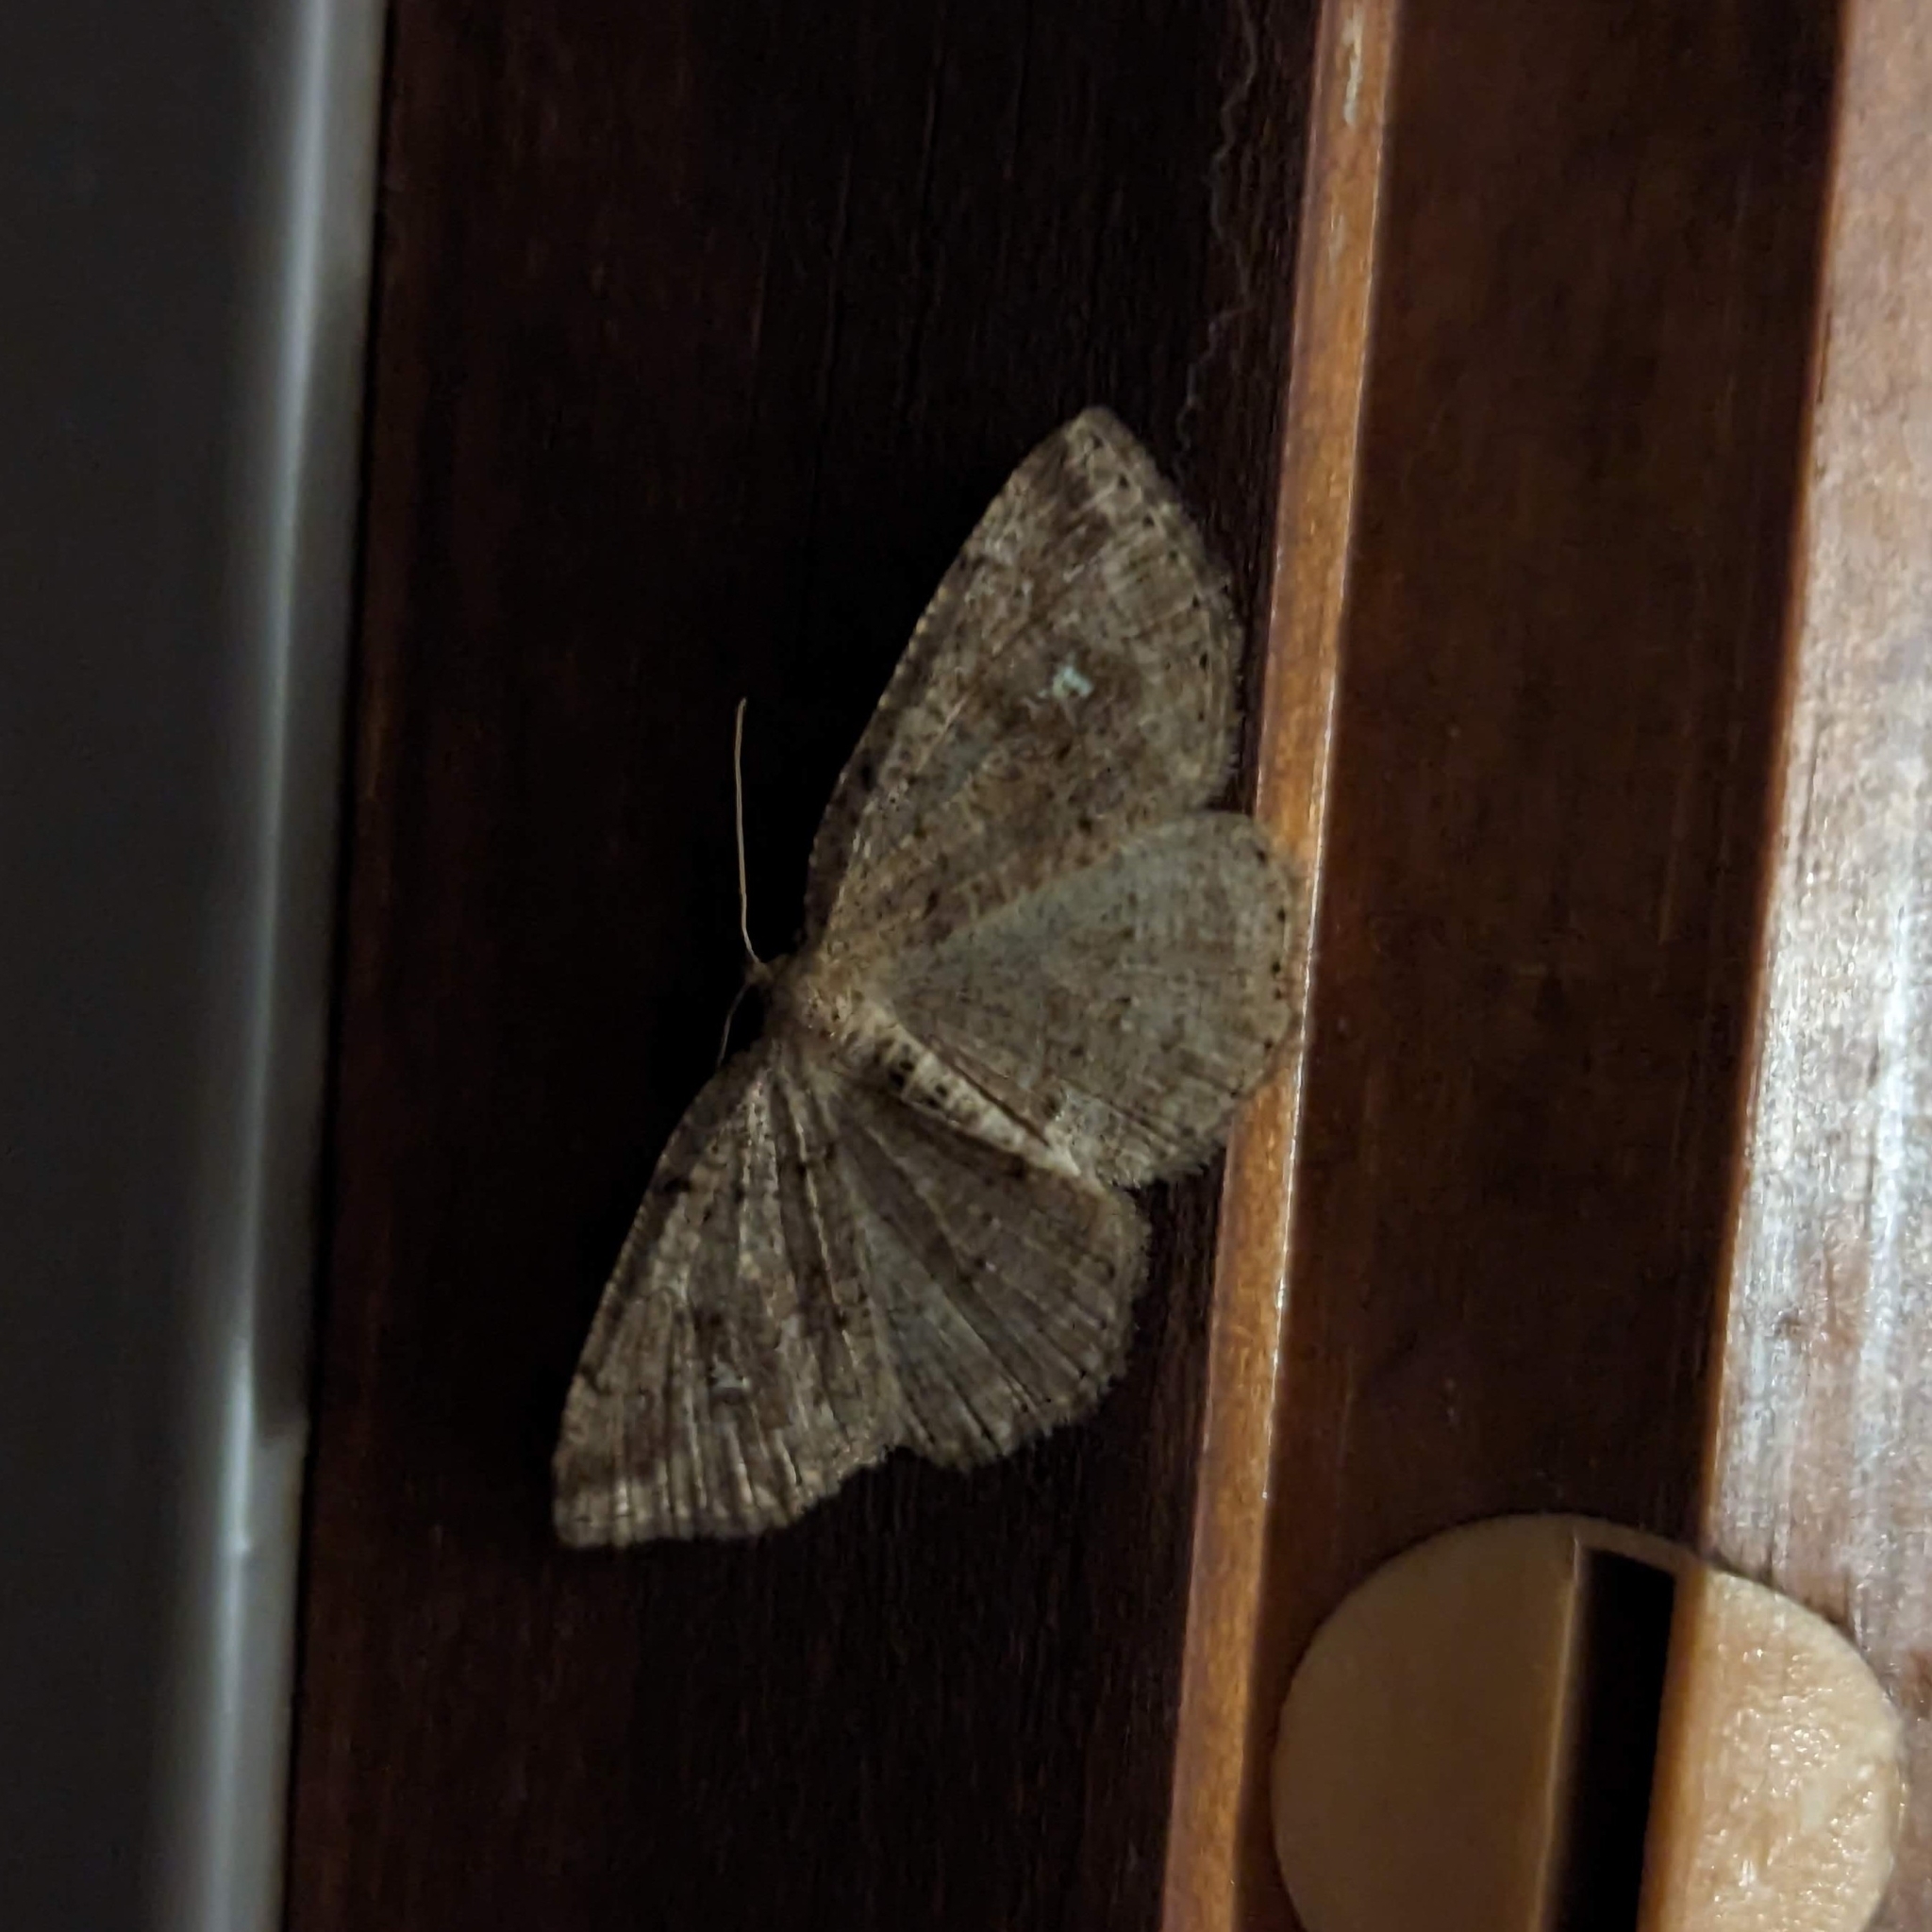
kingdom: Animalia
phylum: Arthropoda
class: Insecta
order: Lepidoptera
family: Geometridae
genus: Homochlodes
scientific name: Homochlodes fritillaria
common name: Pale homochlodes
